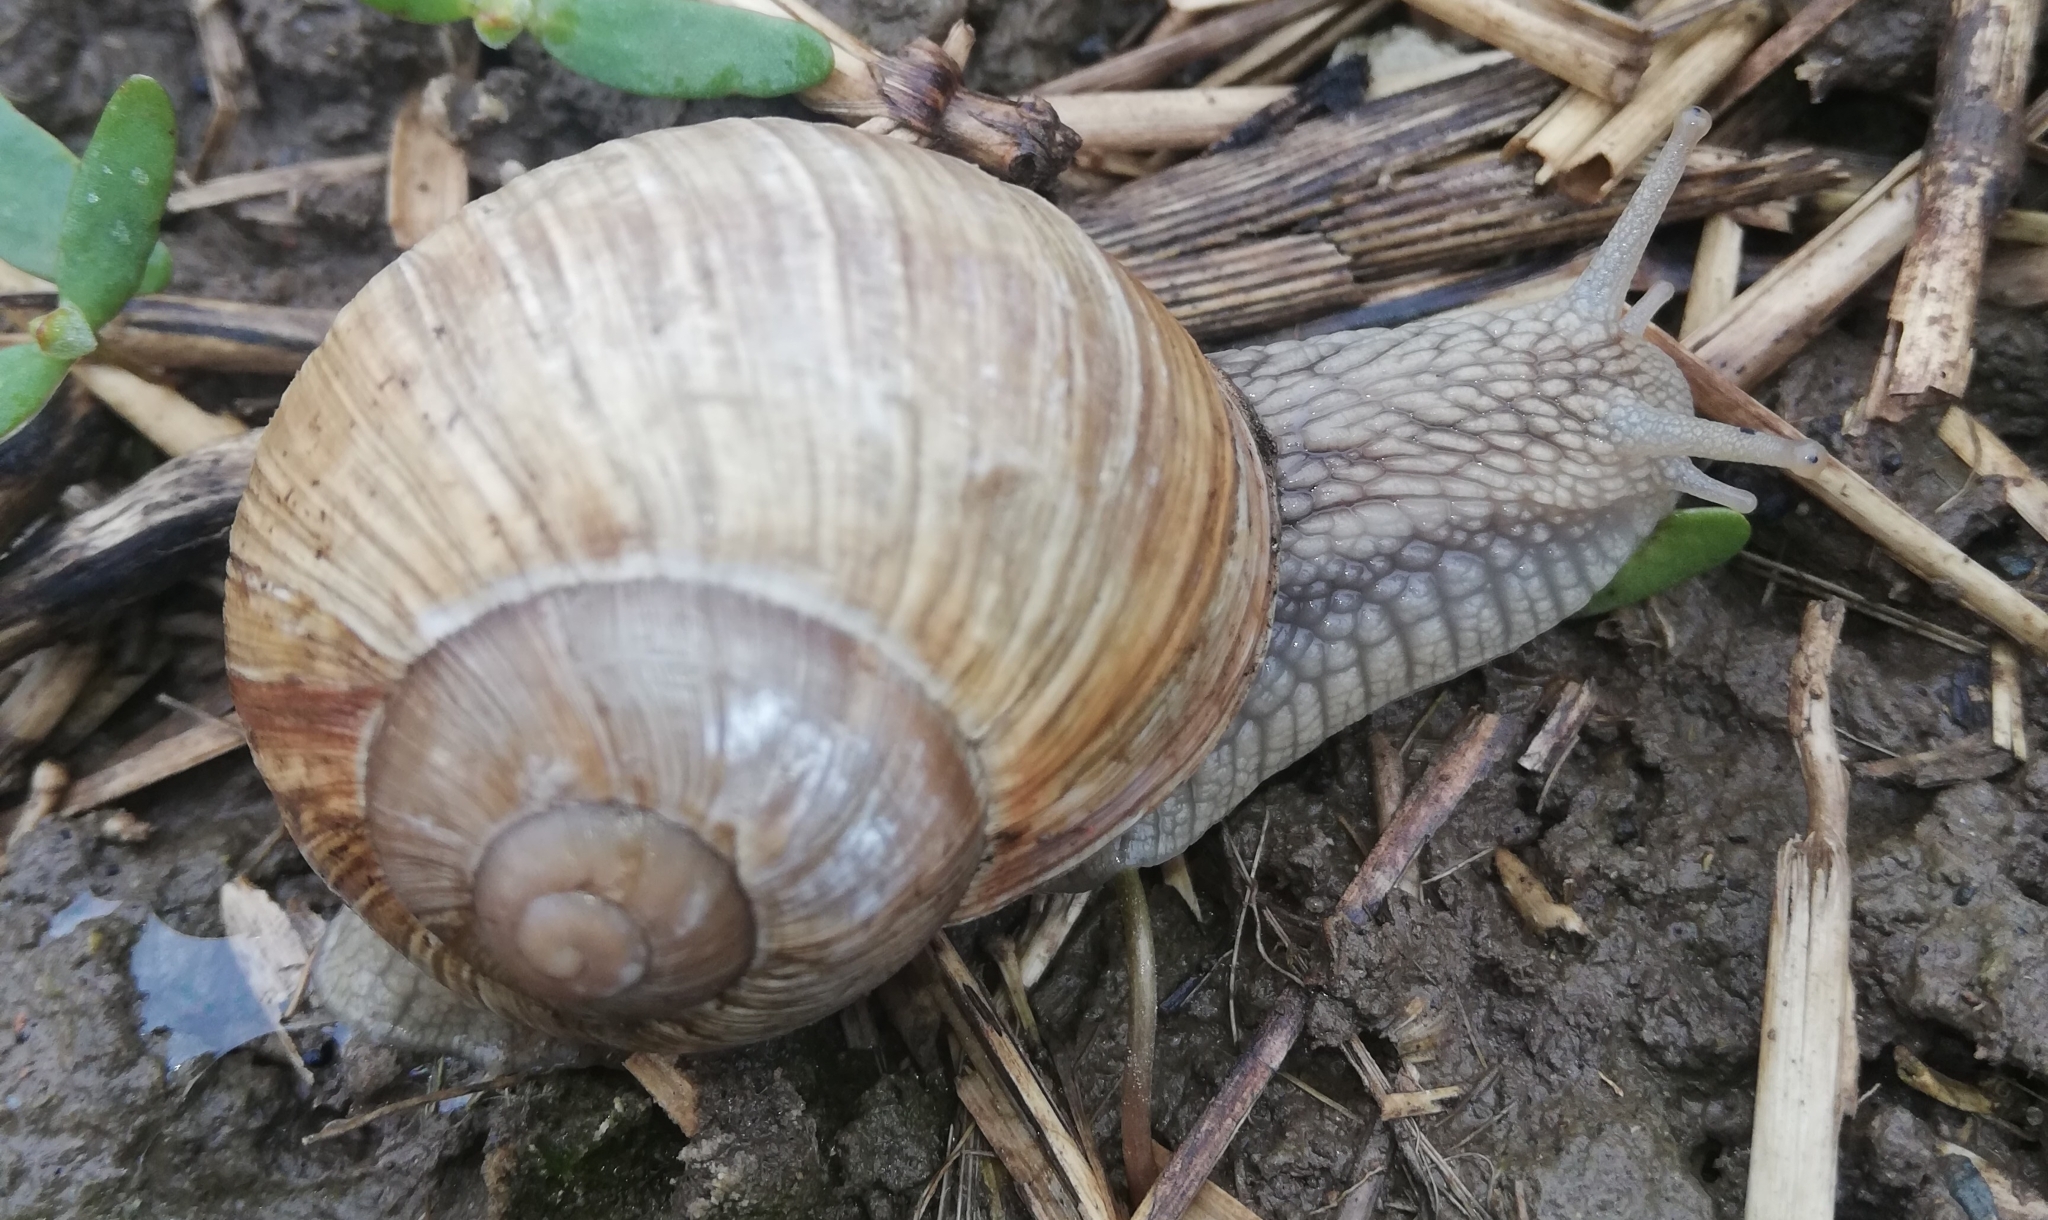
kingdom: Animalia
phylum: Mollusca
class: Gastropoda
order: Stylommatophora
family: Helicidae
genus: Helix
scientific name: Helix pomatia
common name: Roman snail
